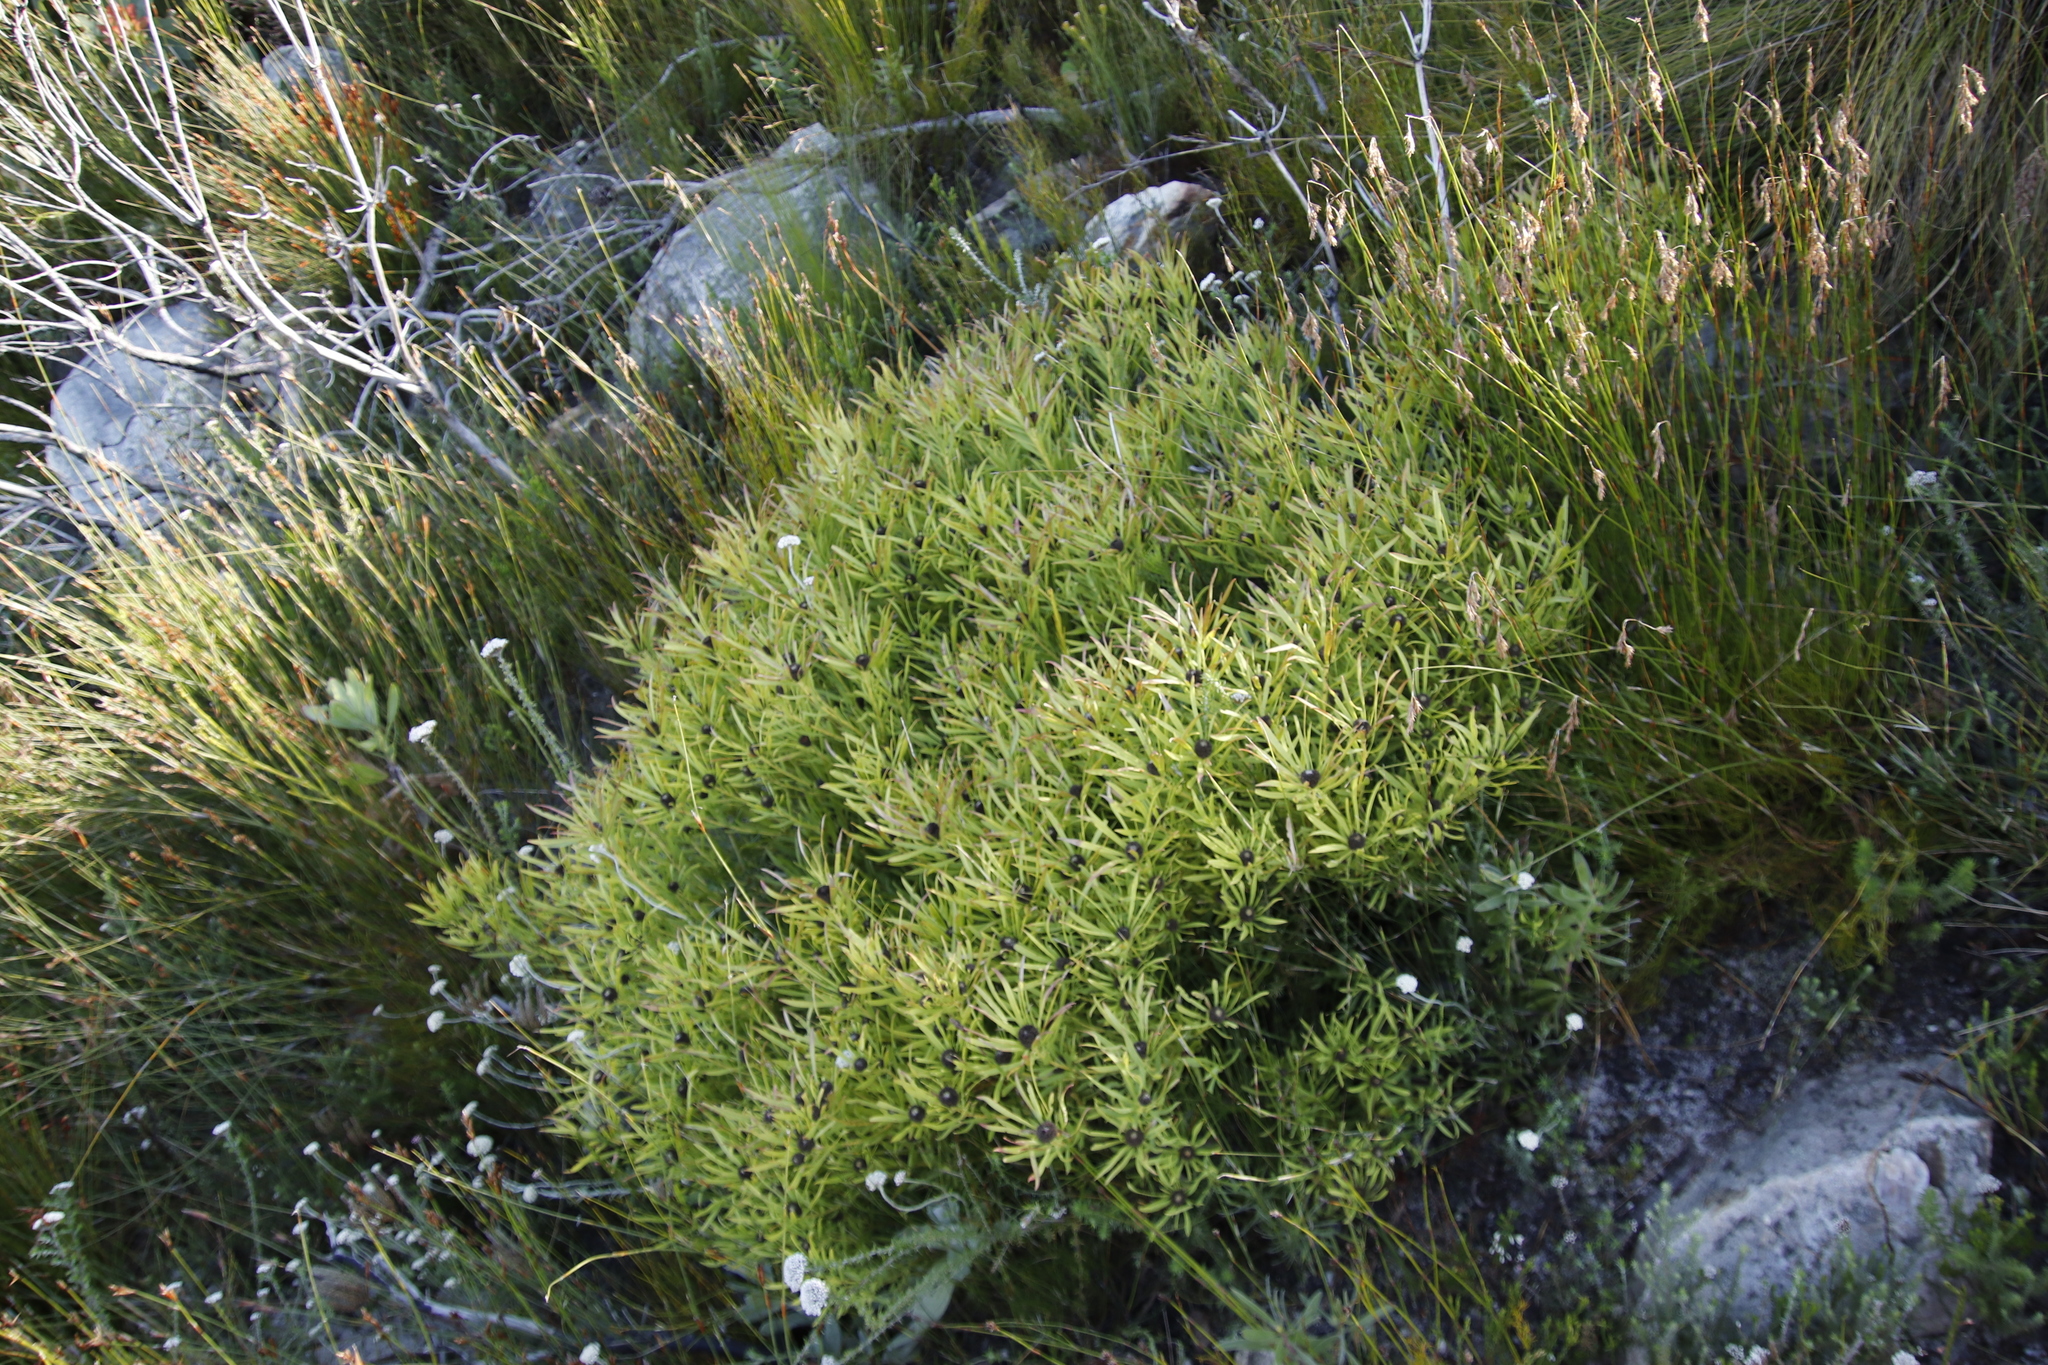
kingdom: Plantae
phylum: Tracheophyta
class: Magnoliopsida
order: Proteales
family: Proteaceae
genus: Leucadendron
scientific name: Leucadendron salignum
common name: Common sunshine conebush
